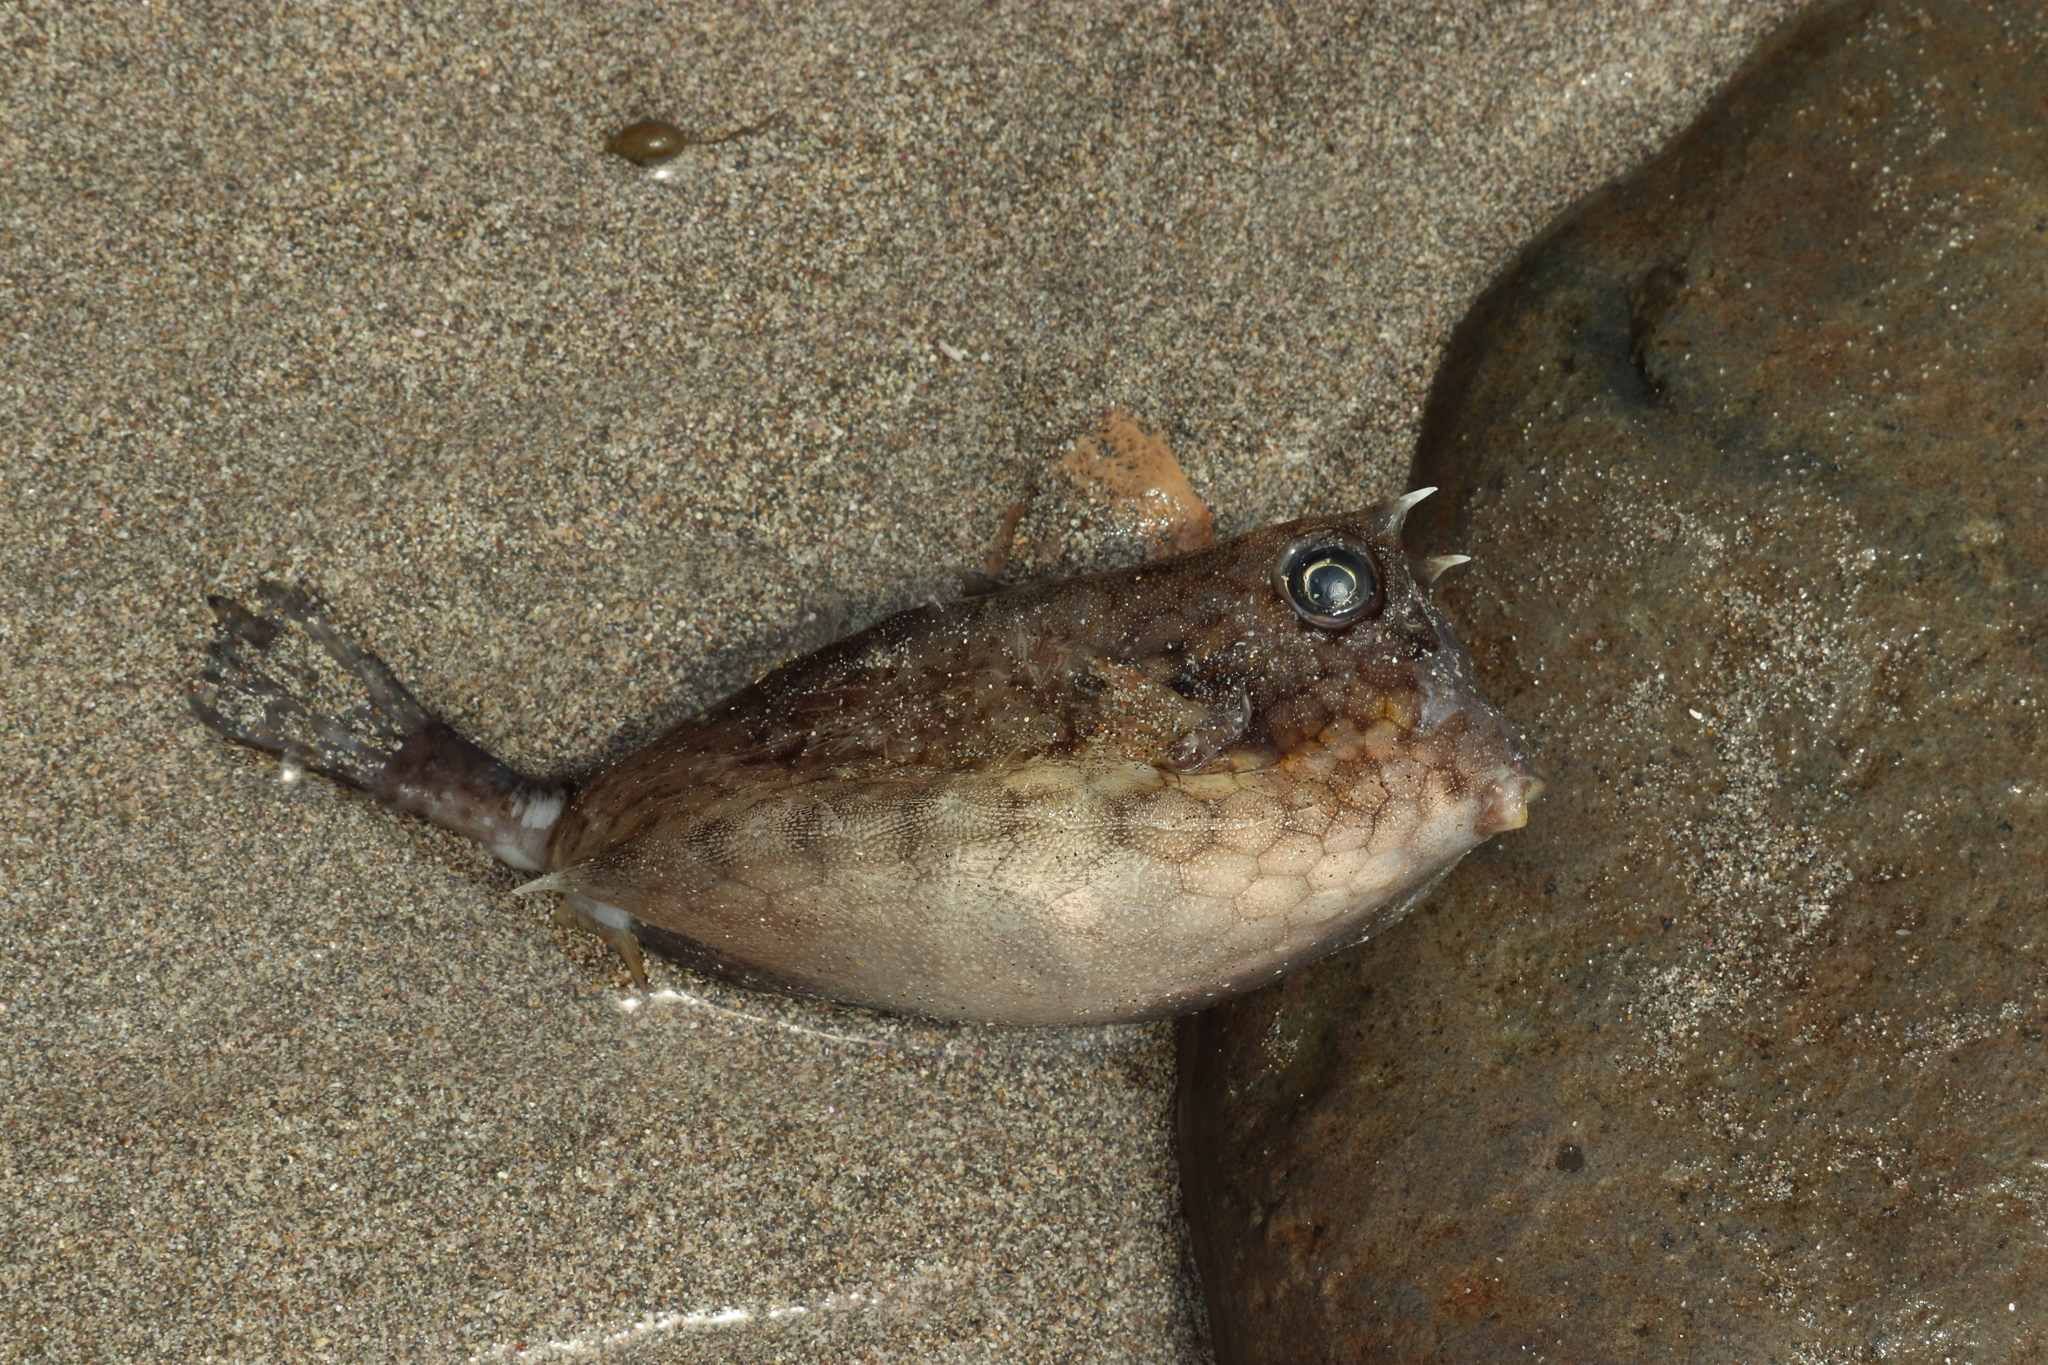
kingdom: Animalia
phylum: Chordata
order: Tetraodontiformes
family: Ostraciidae
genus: Lactoria
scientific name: Lactoria diaphana
